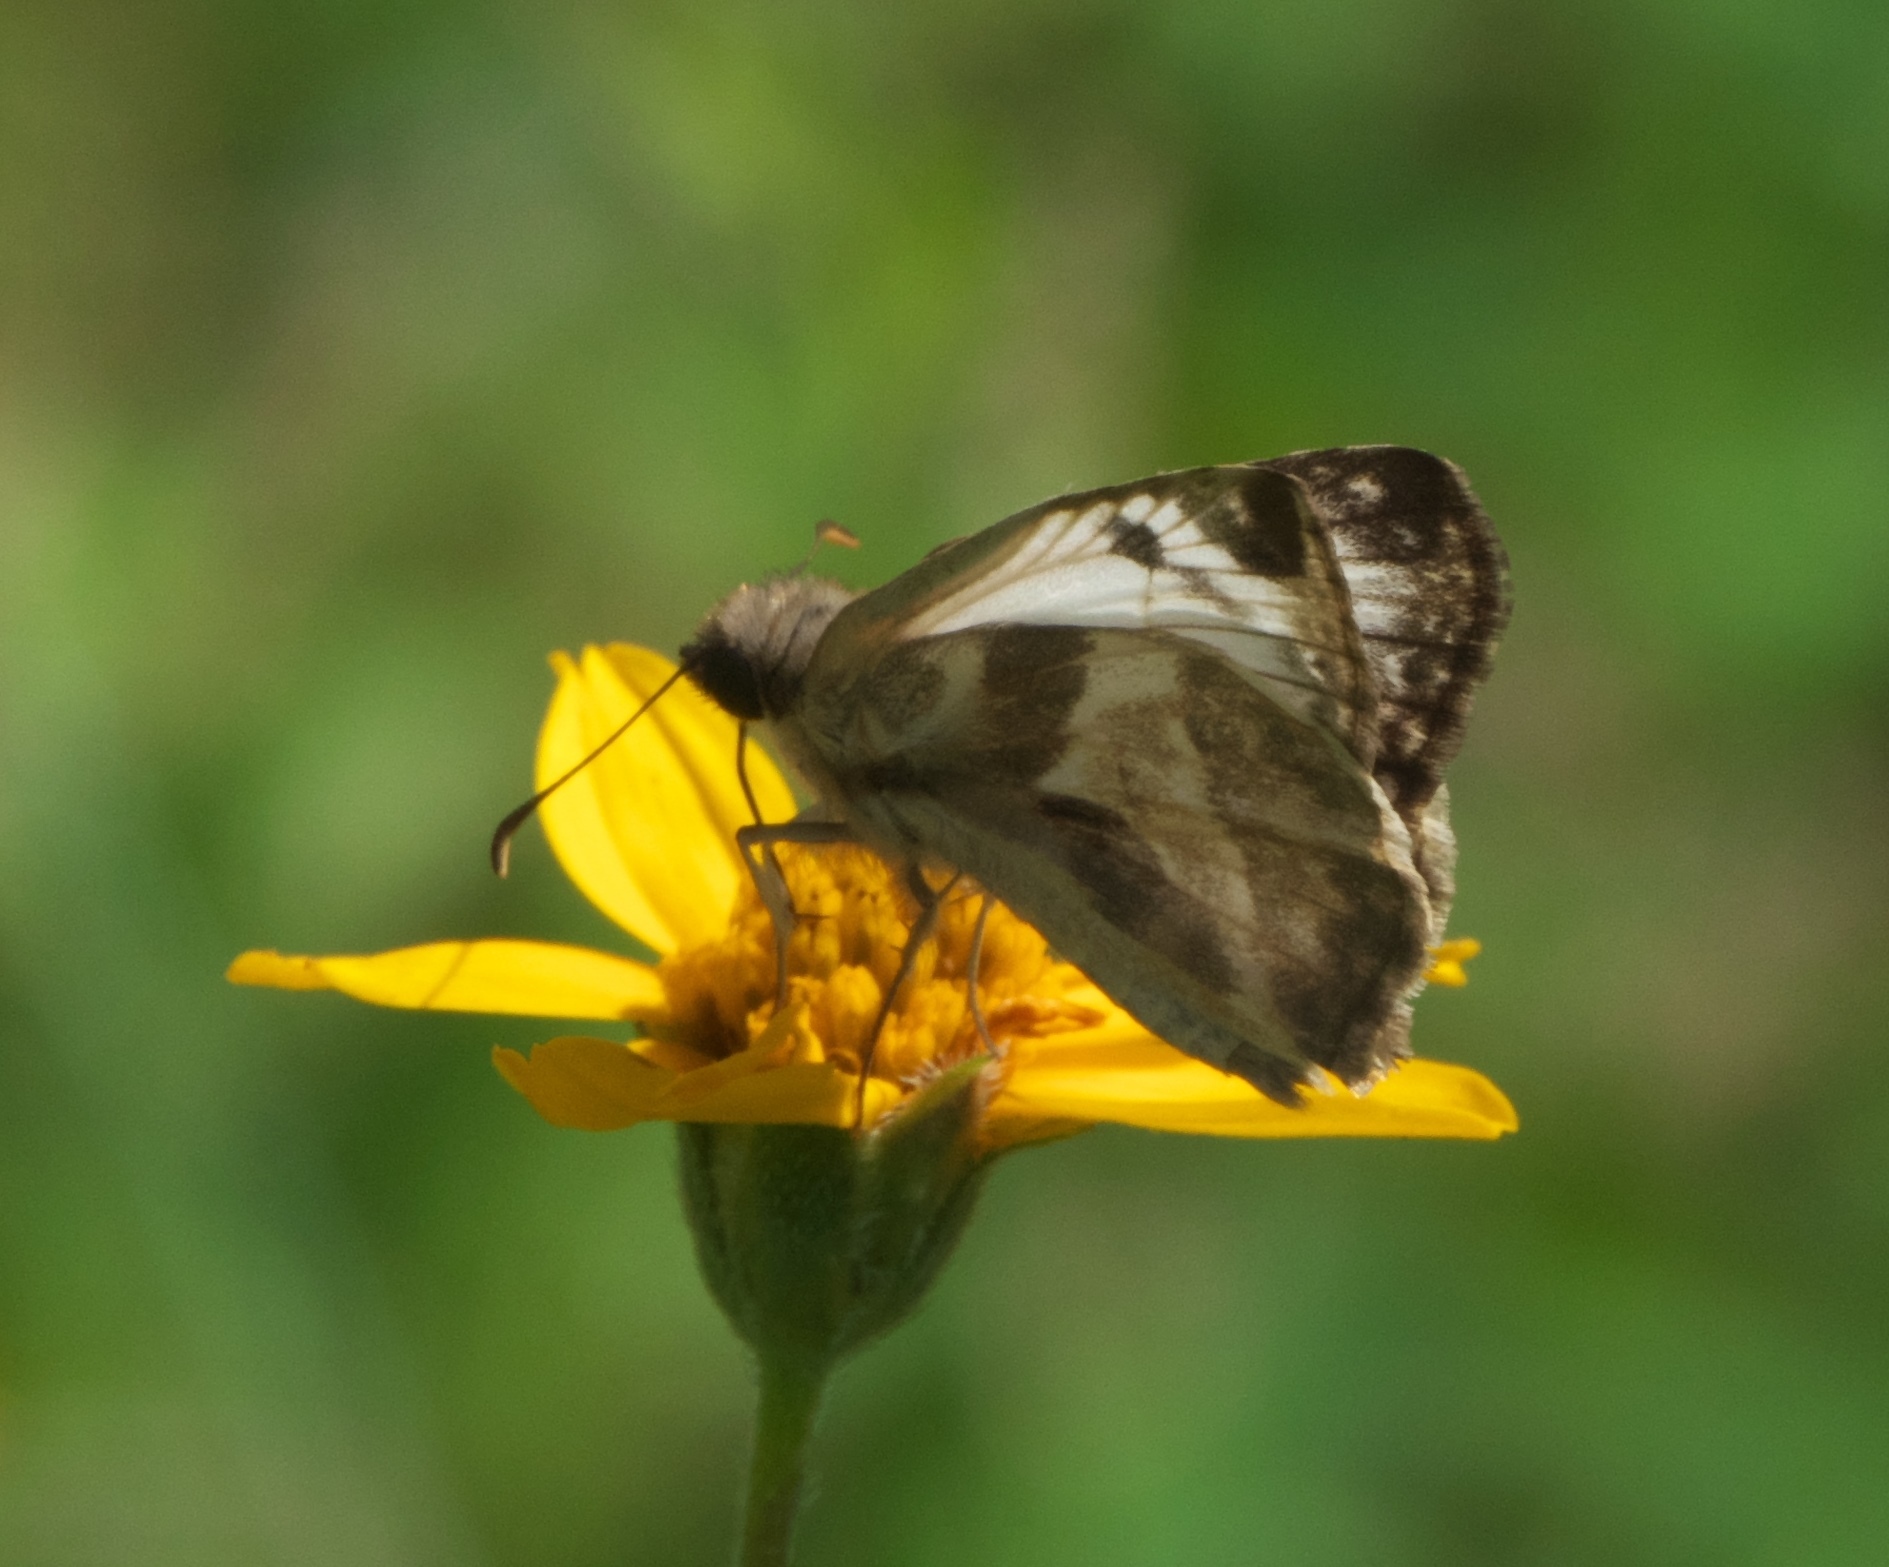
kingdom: Animalia
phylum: Arthropoda
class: Insecta
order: Lepidoptera
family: Hesperiidae
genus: Heliopetes
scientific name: Heliopetes laviana
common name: Laviana white-skipper
